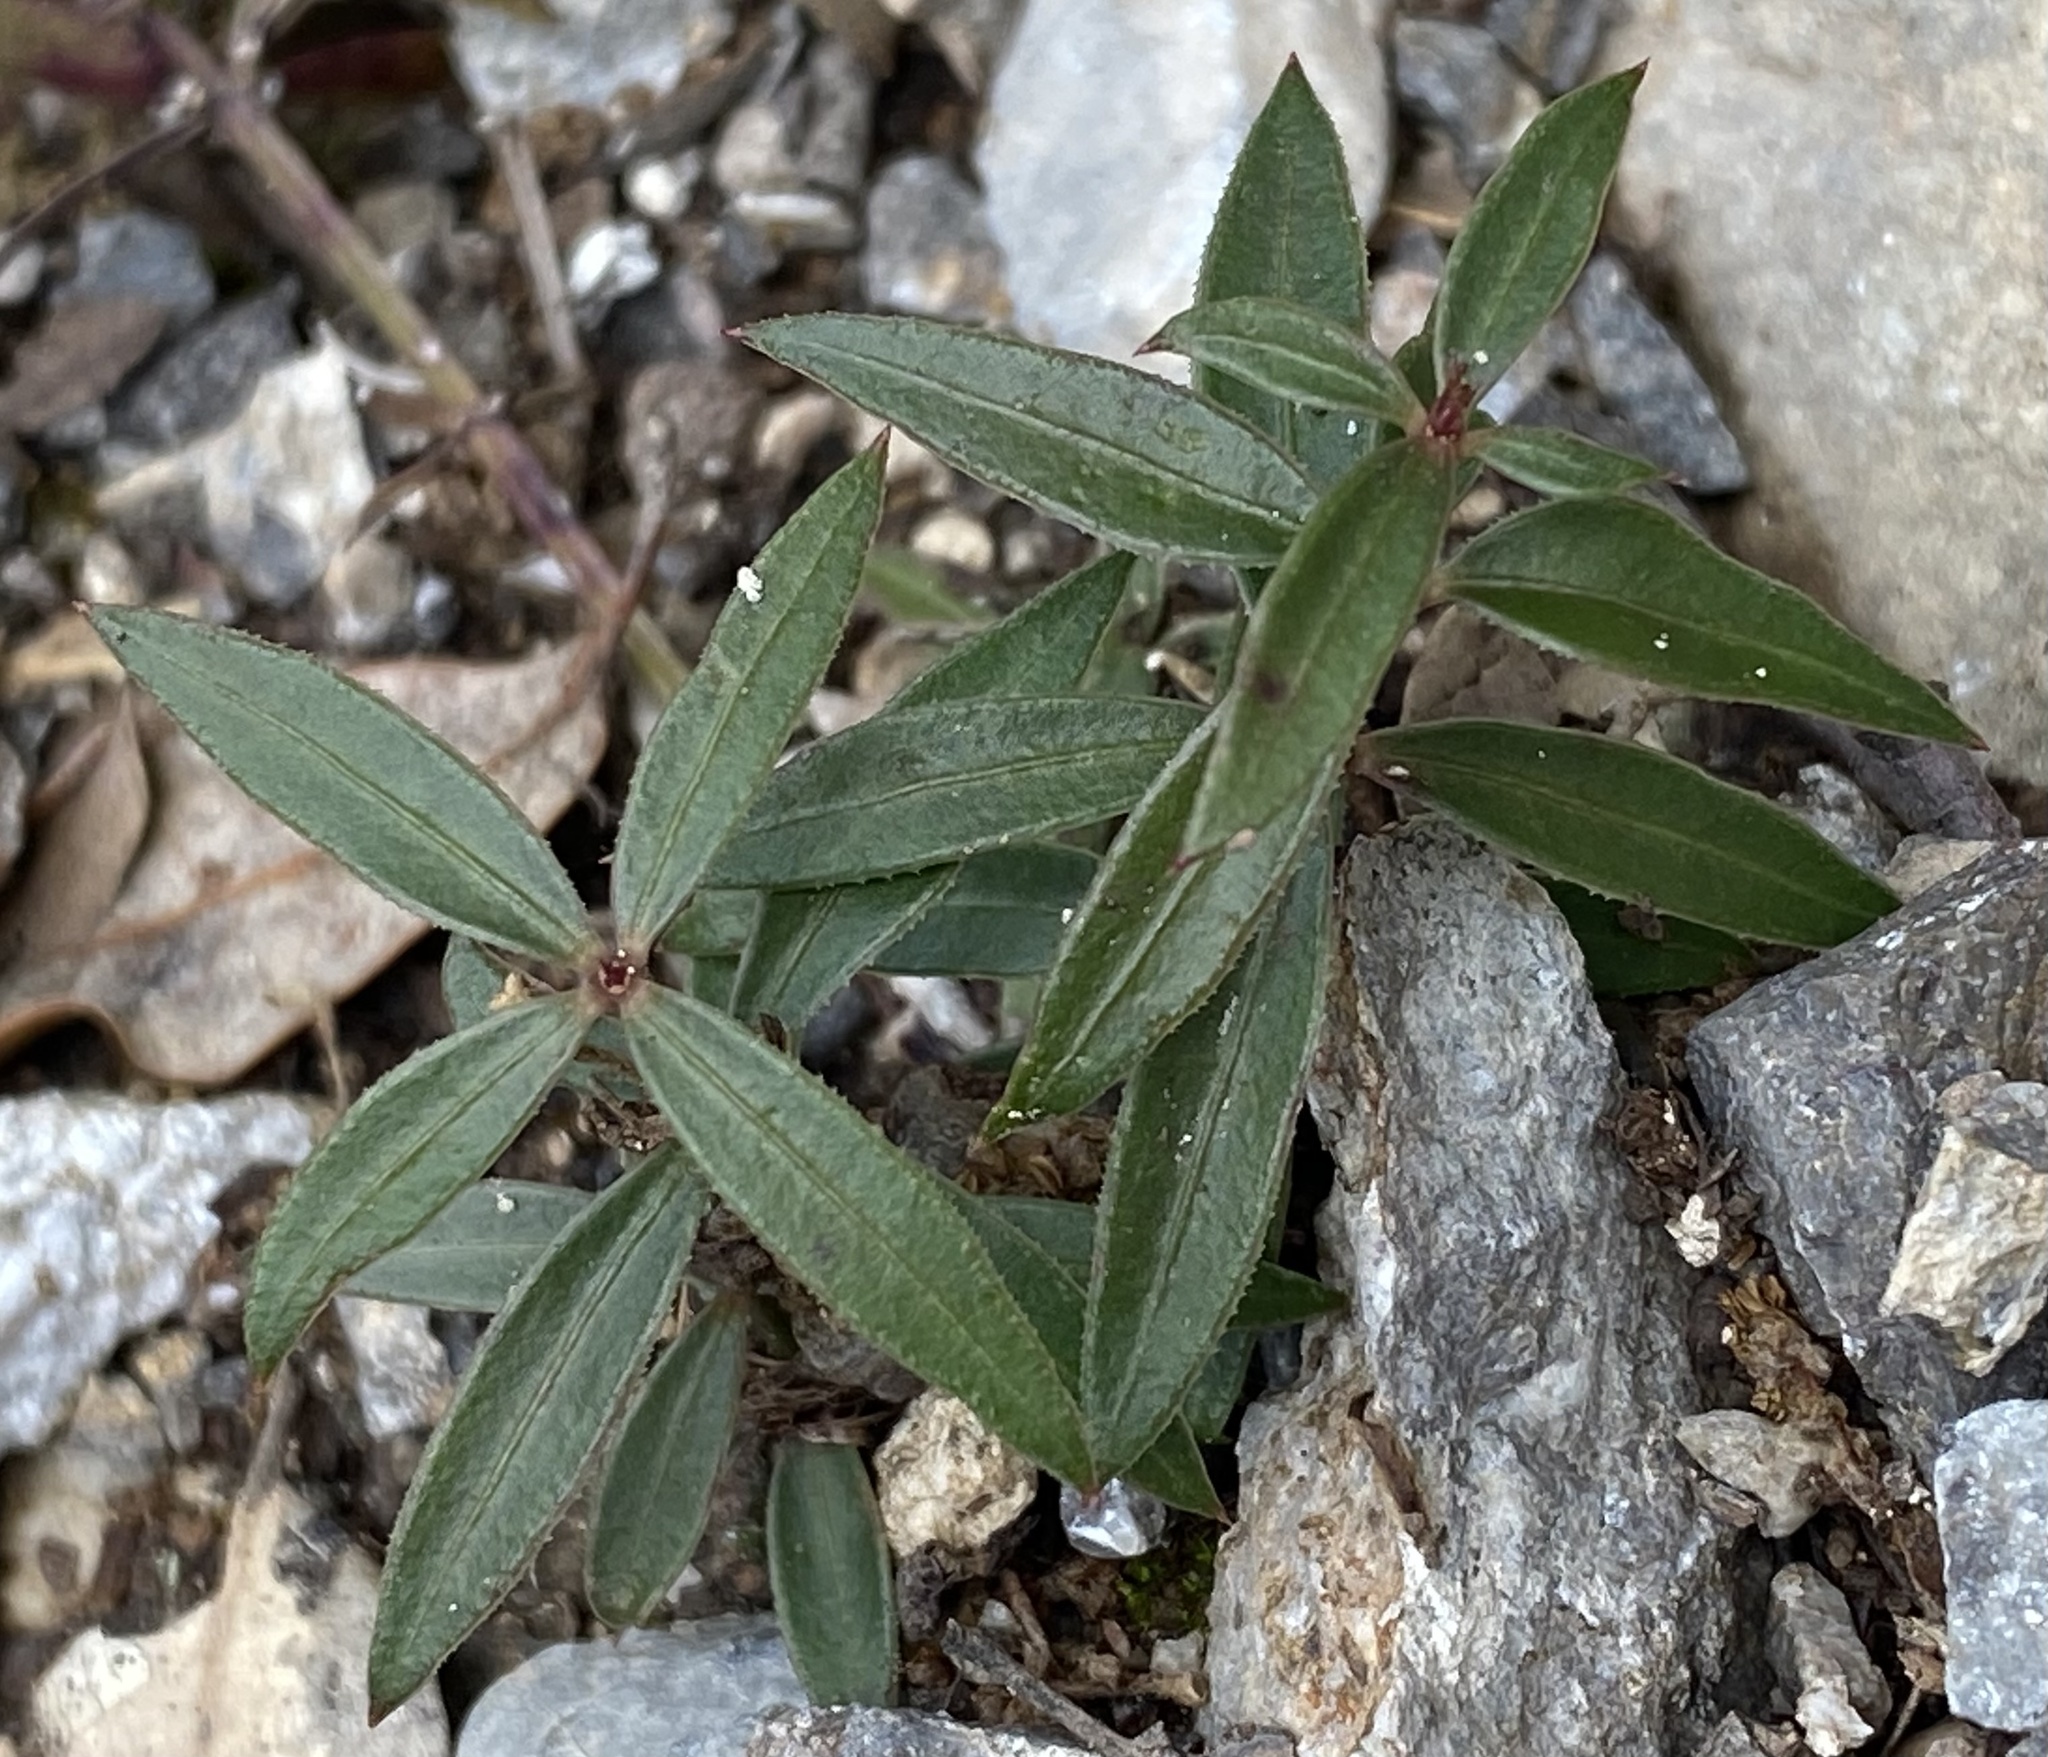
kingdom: Plantae
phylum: Tracheophyta
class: Magnoliopsida
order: Gentianales
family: Rubiaceae
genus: Rubia
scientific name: Rubia peregrina
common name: Wild madder
